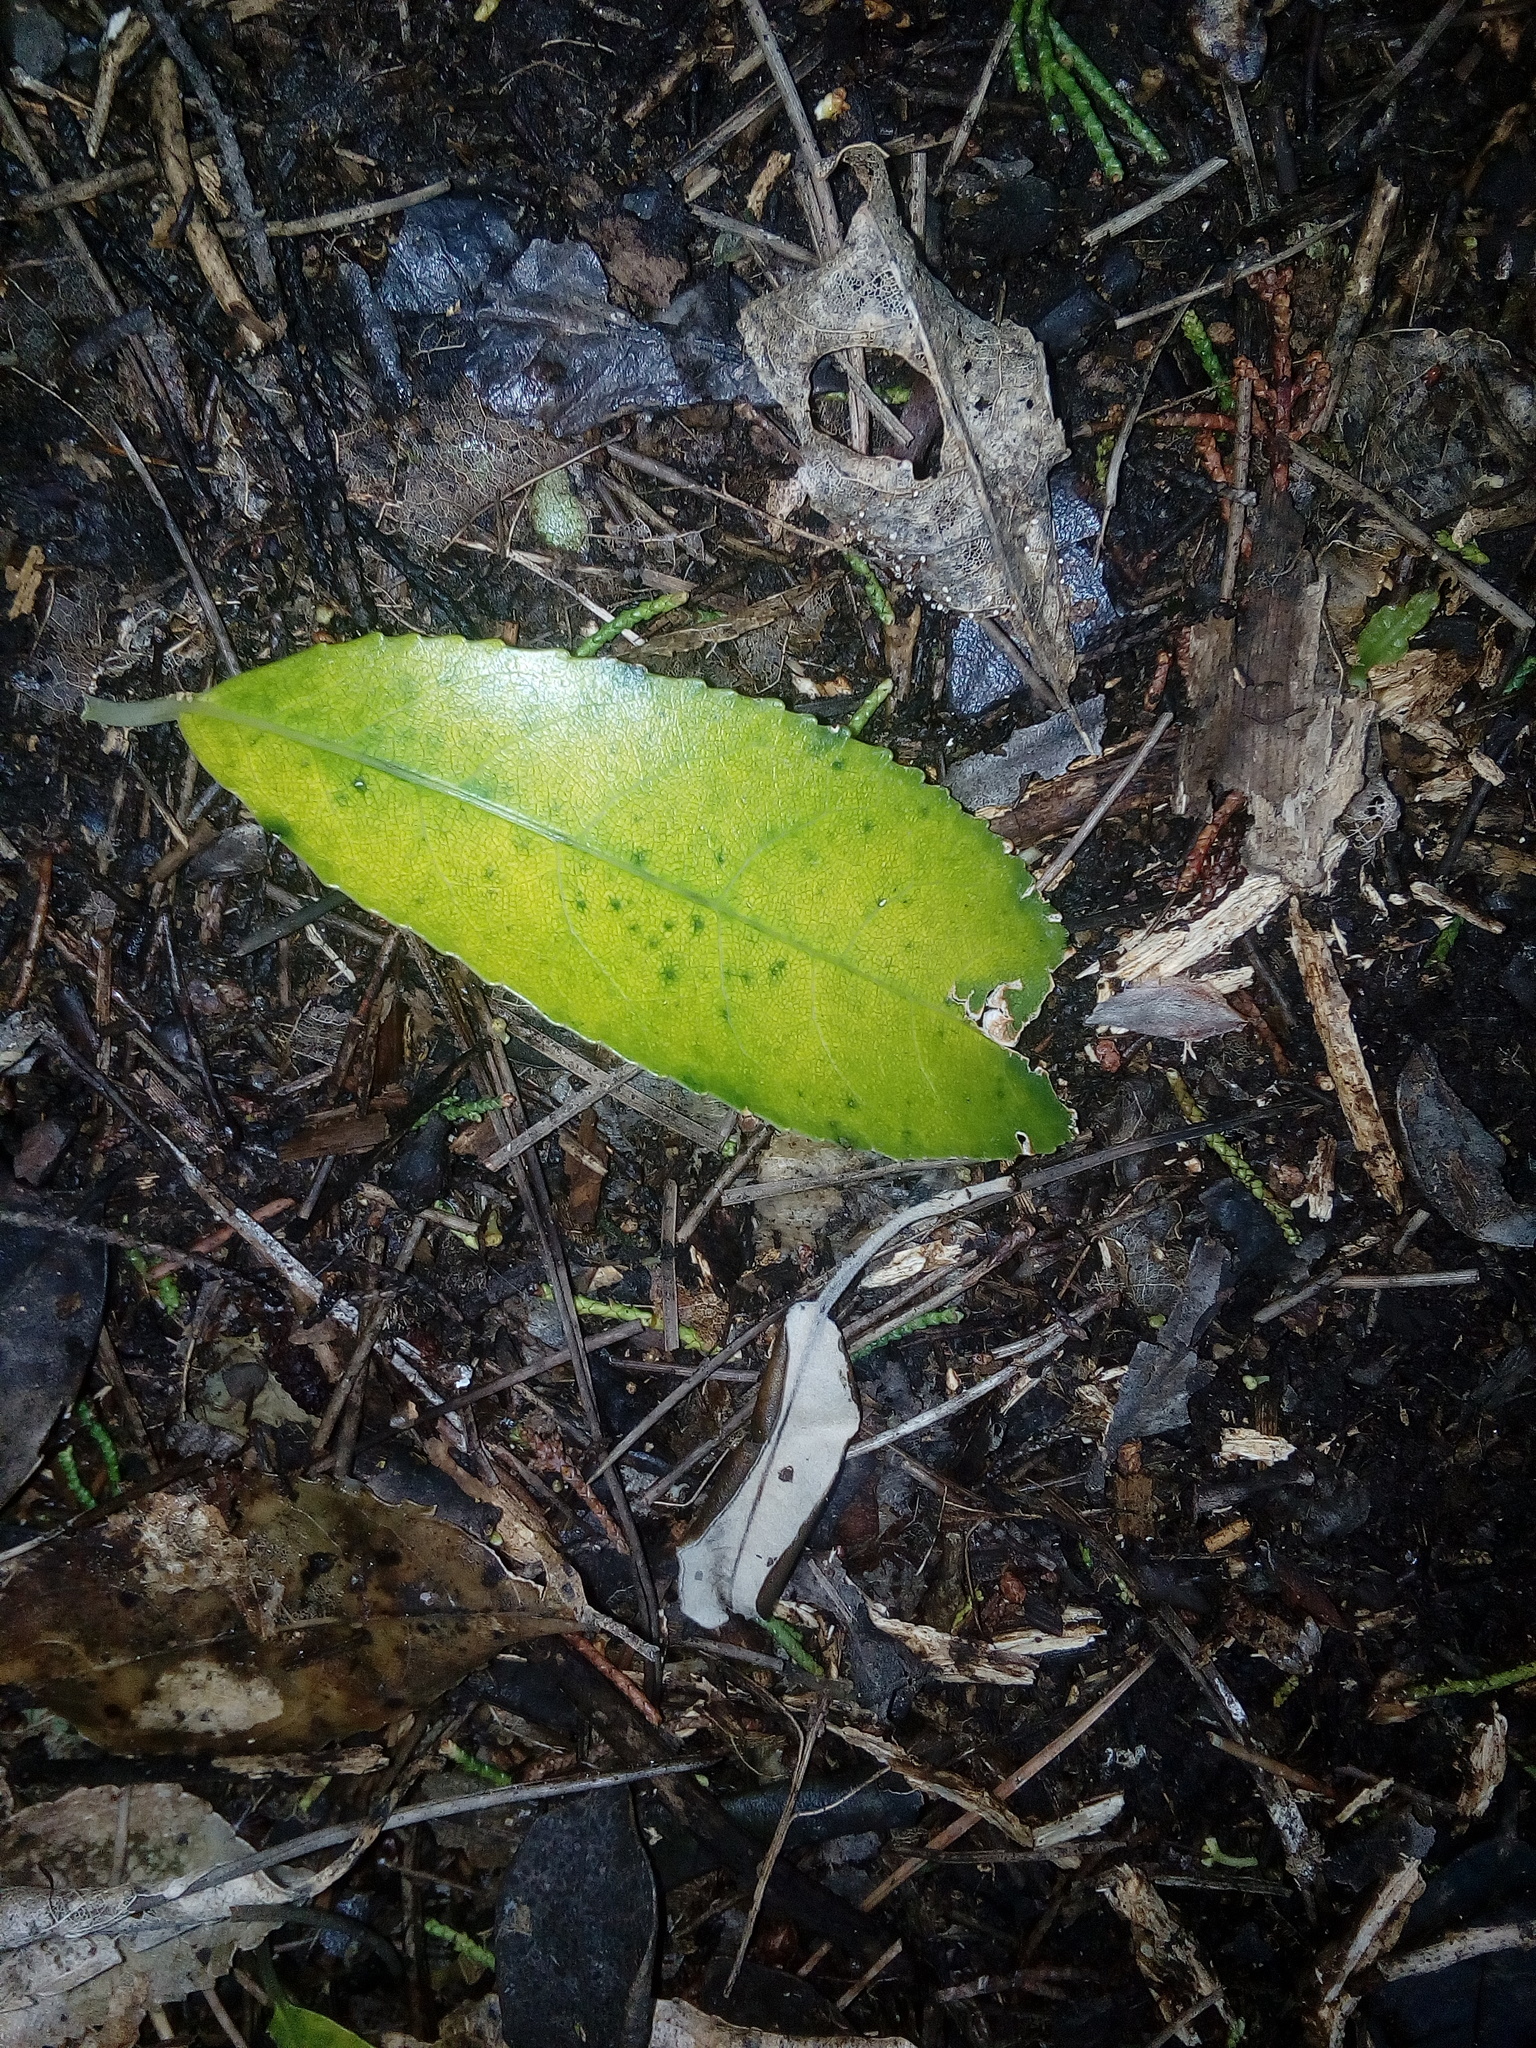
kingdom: Plantae
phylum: Tracheophyta
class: Magnoliopsida
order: Malpighiales
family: Violaceae
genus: Melicytus
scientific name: Melicytus ramiflorus
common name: Mahoe
